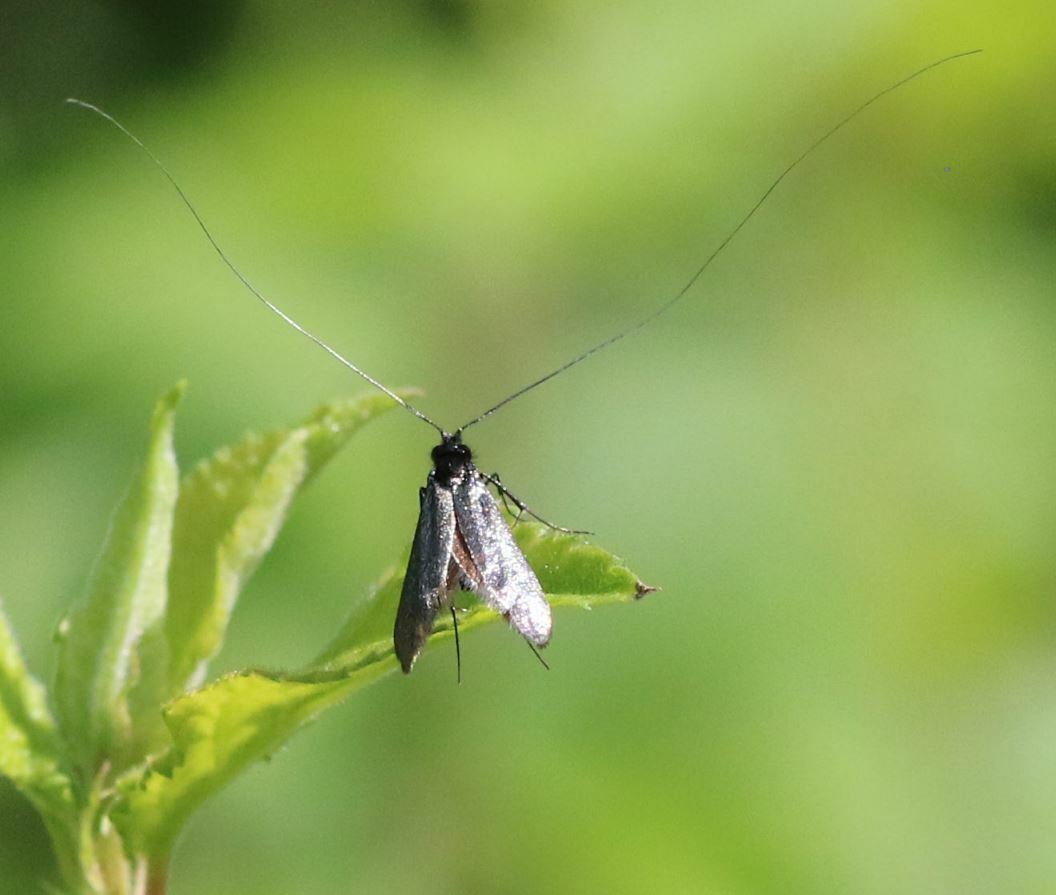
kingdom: Animalia
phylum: Arthropoda
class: Insecta
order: Lepidoptera
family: Adelidae
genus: Adela
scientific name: Adela viridella
